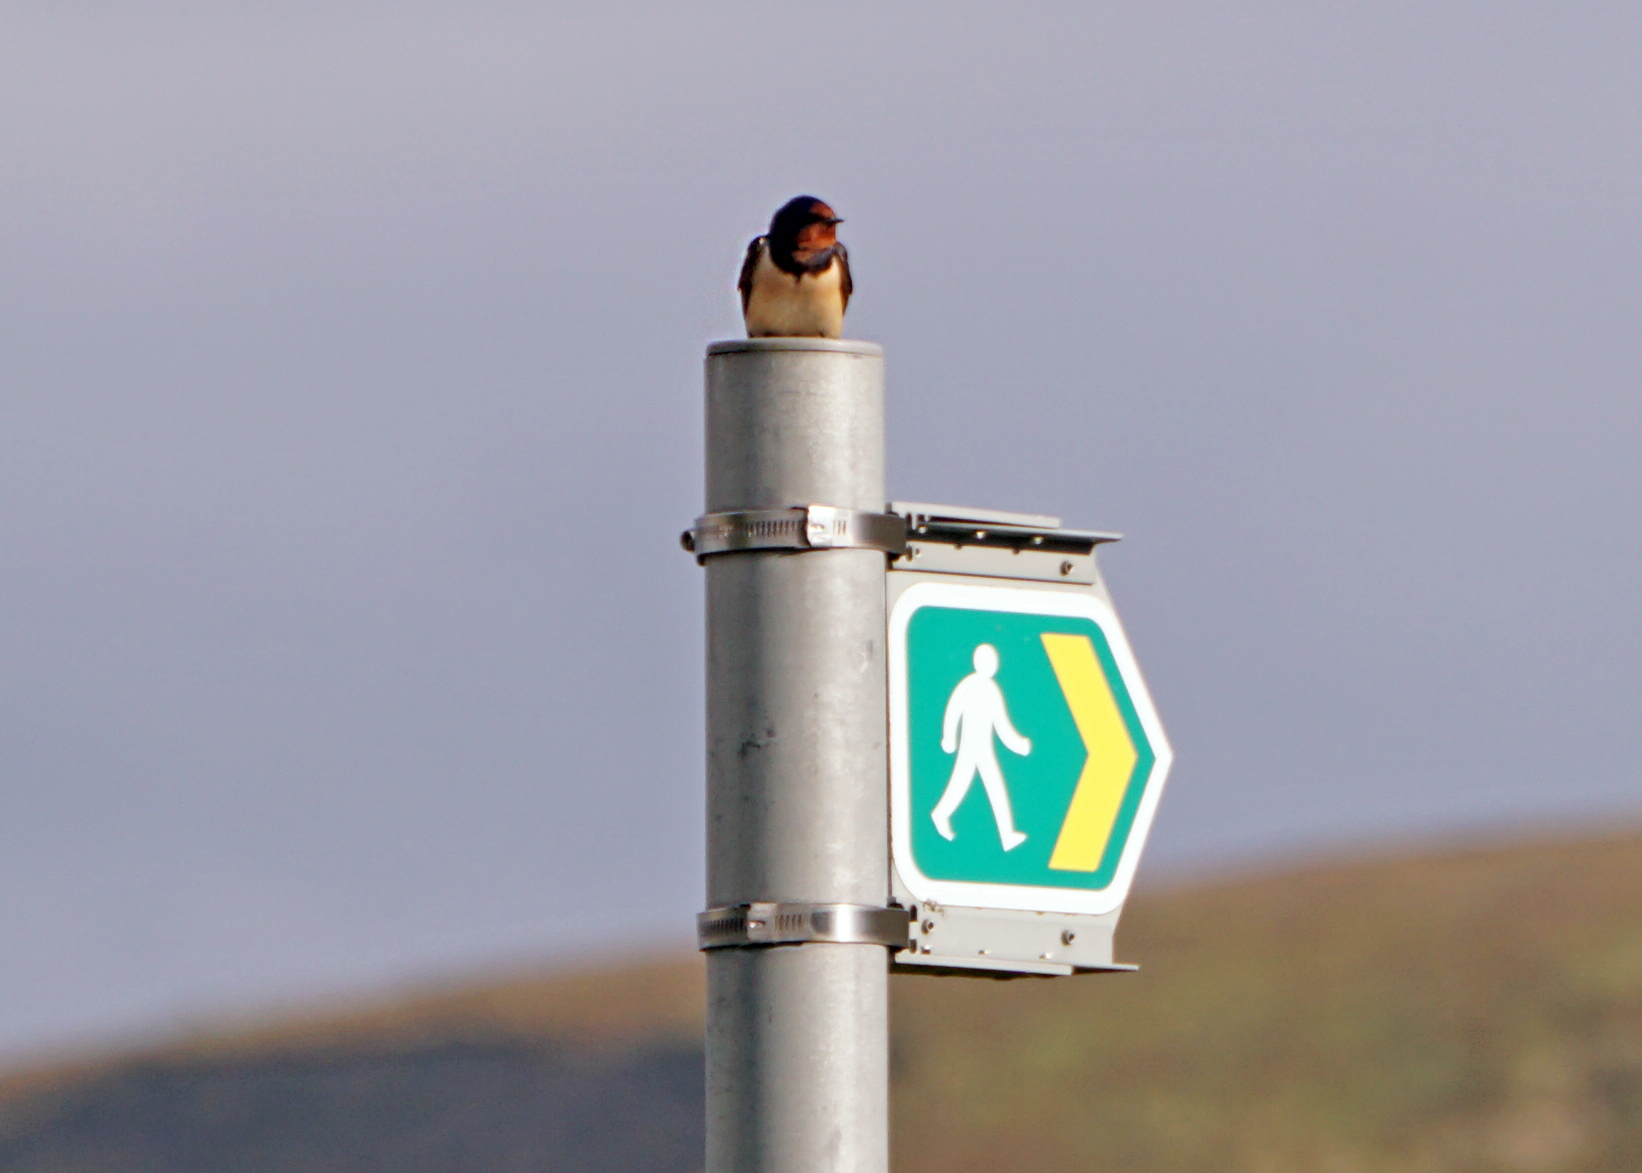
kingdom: Animalia
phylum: Chordata
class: Aves
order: Passeriformes
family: Hirundinidae
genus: Hirundo
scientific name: Hirundo rustica
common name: Barn swallow
